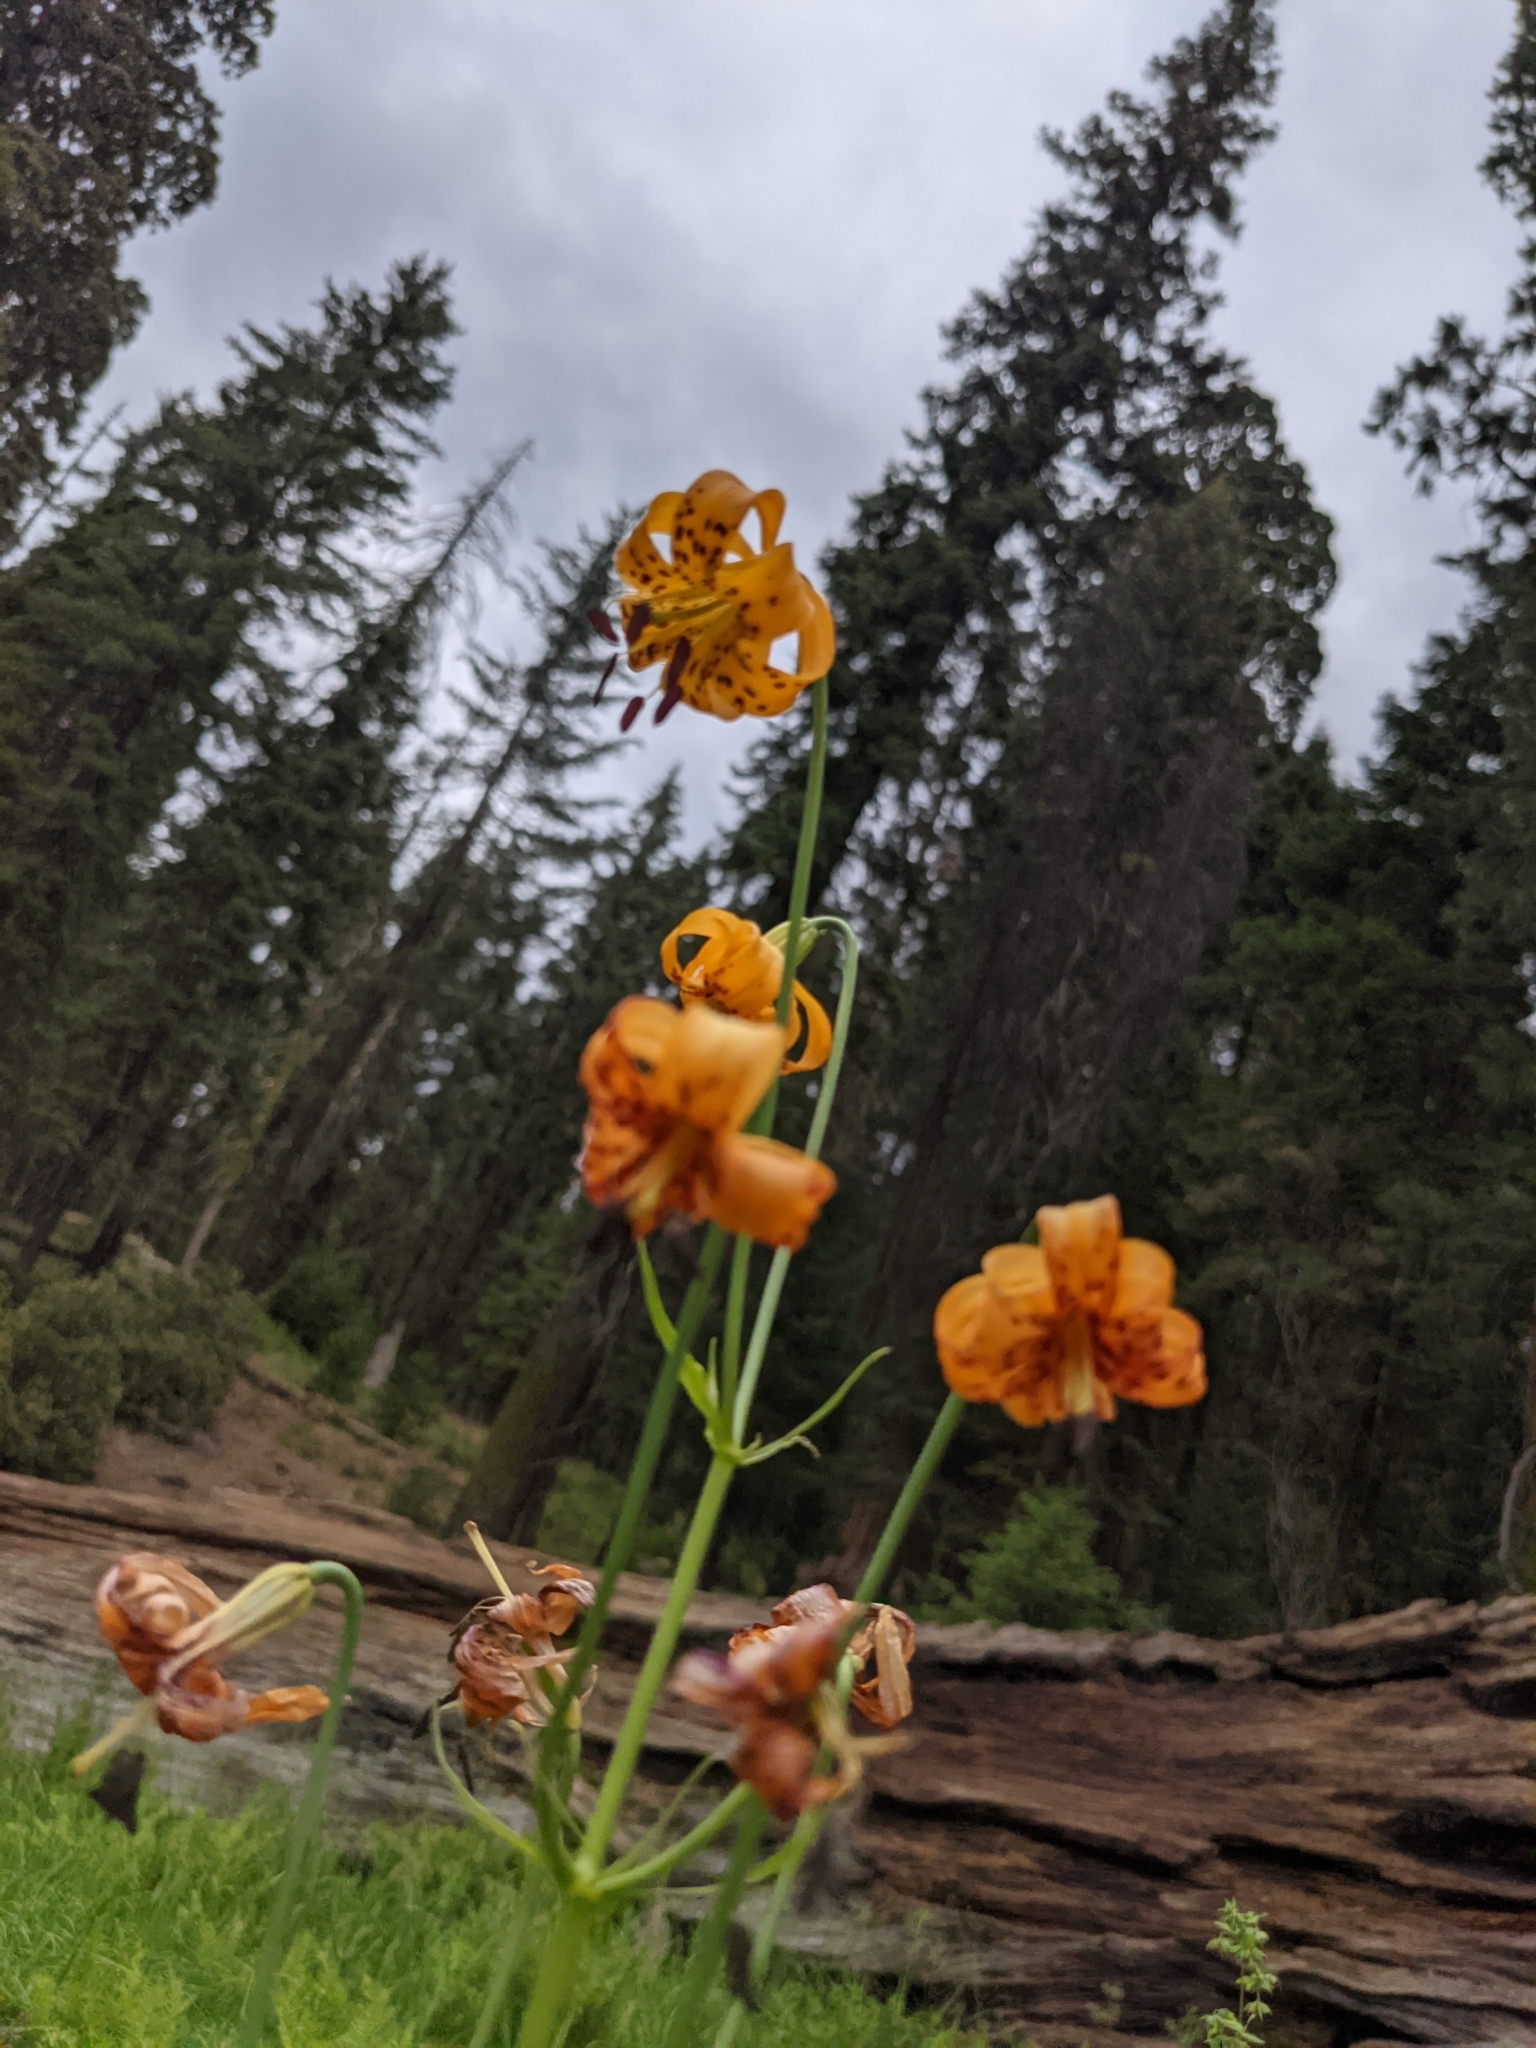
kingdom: Plantae
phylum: Tracheophyta
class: Liliopsida
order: Liliales
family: Liliaceae
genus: Lilium
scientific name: Lilium kelleyanum
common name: Kelley's lily
